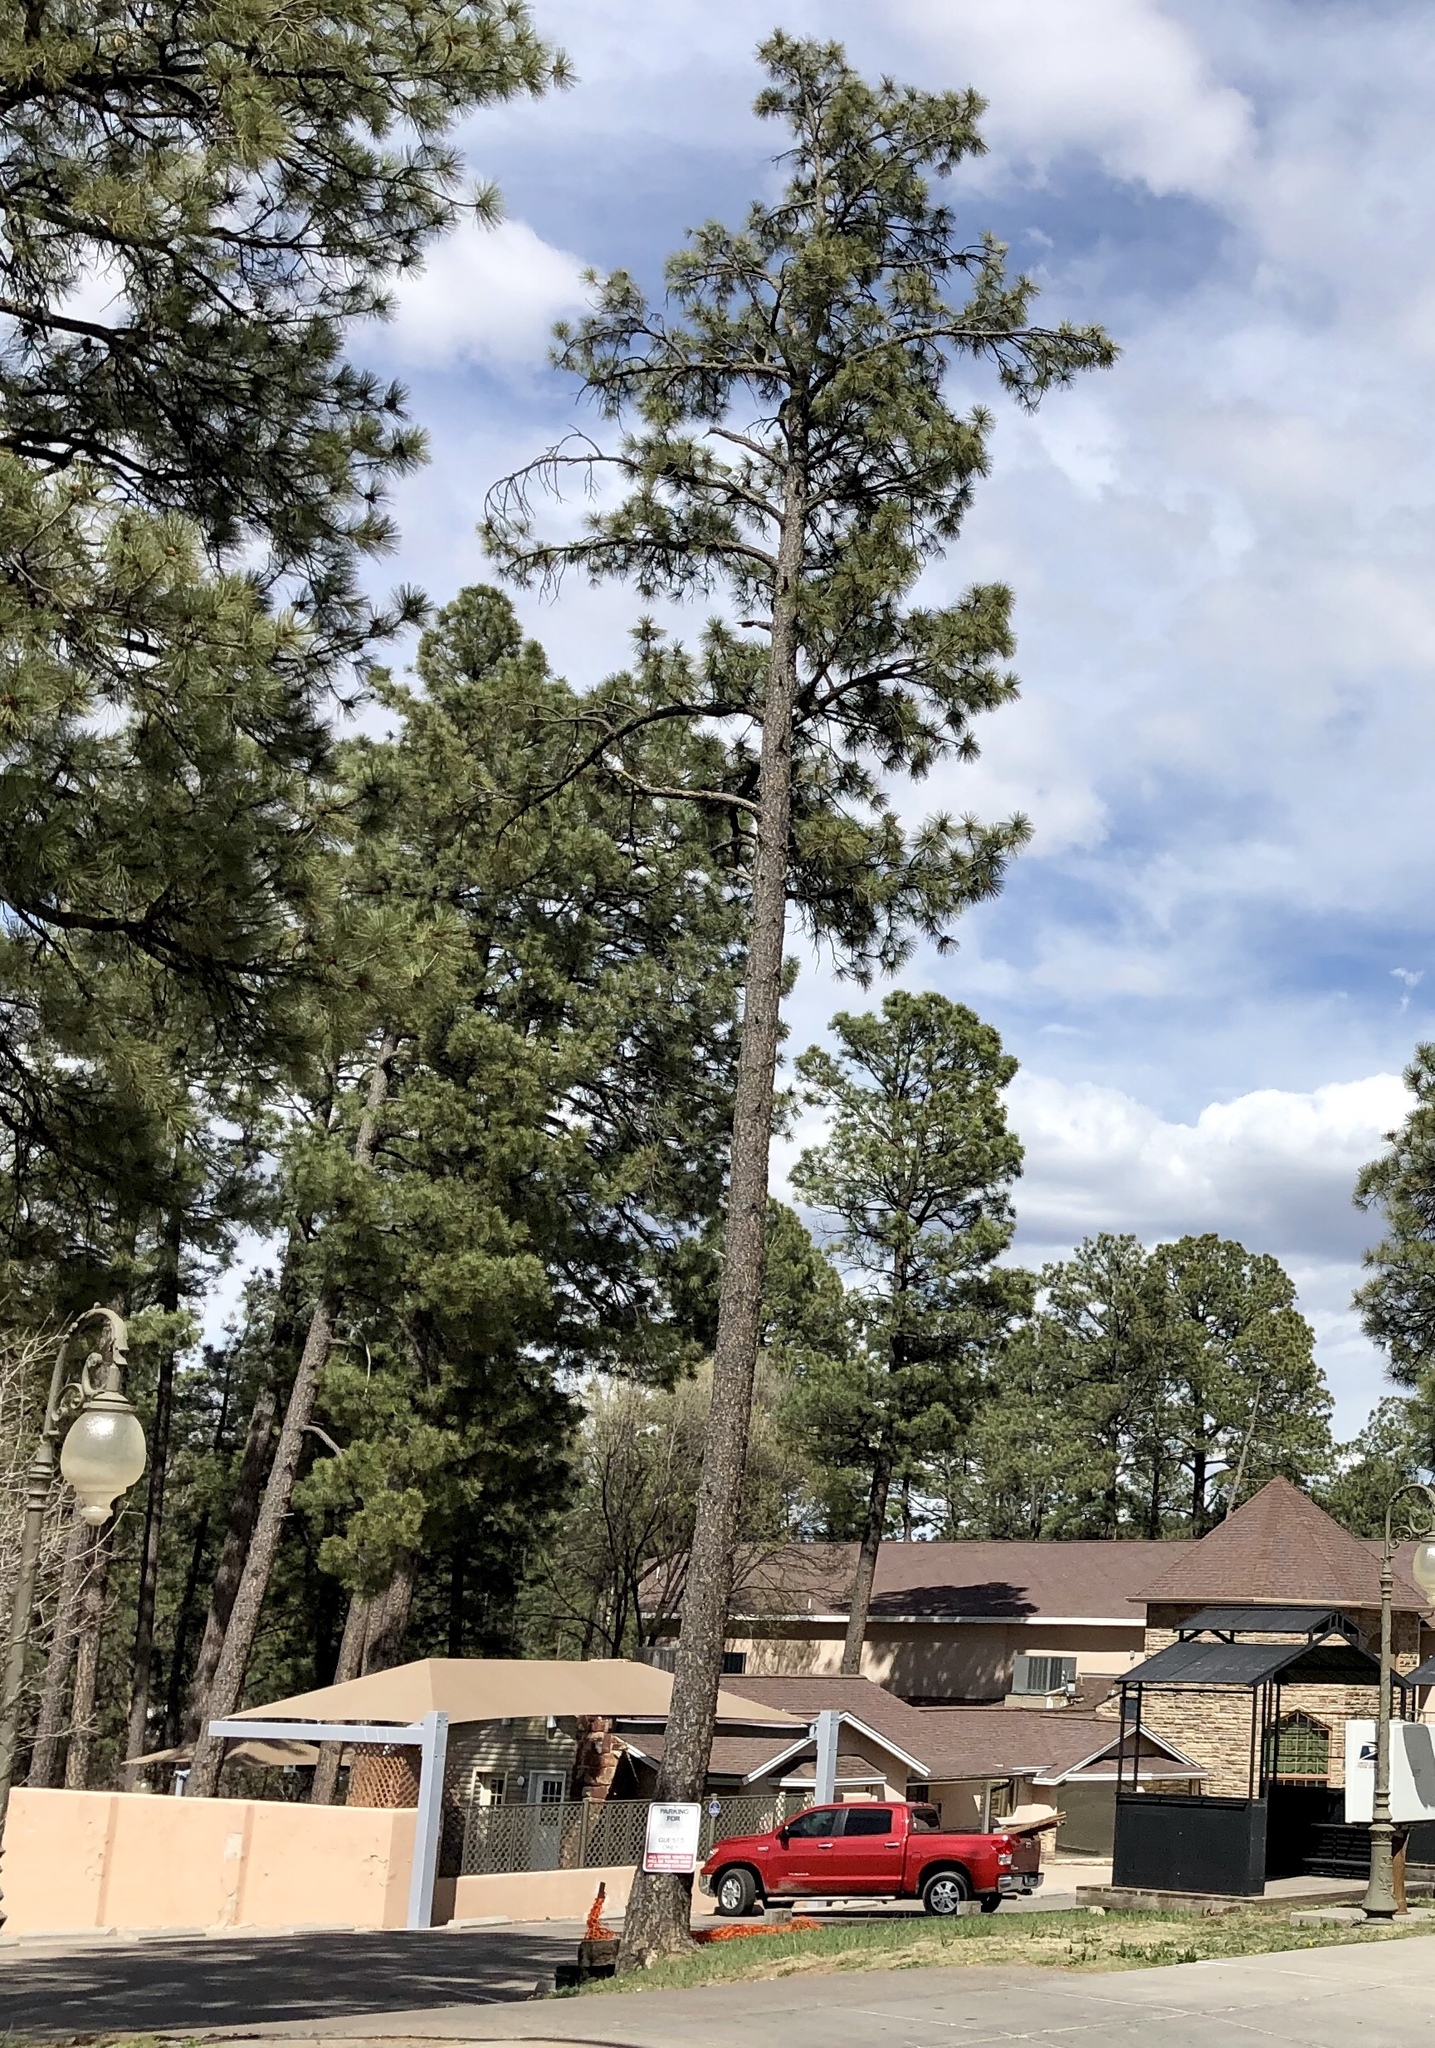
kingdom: Plantae
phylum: Tracheophyta
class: Pinopsida
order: Pinales
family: Pinaceae
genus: Pinus
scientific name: Pinus ponderosa
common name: Western yellow-pine
